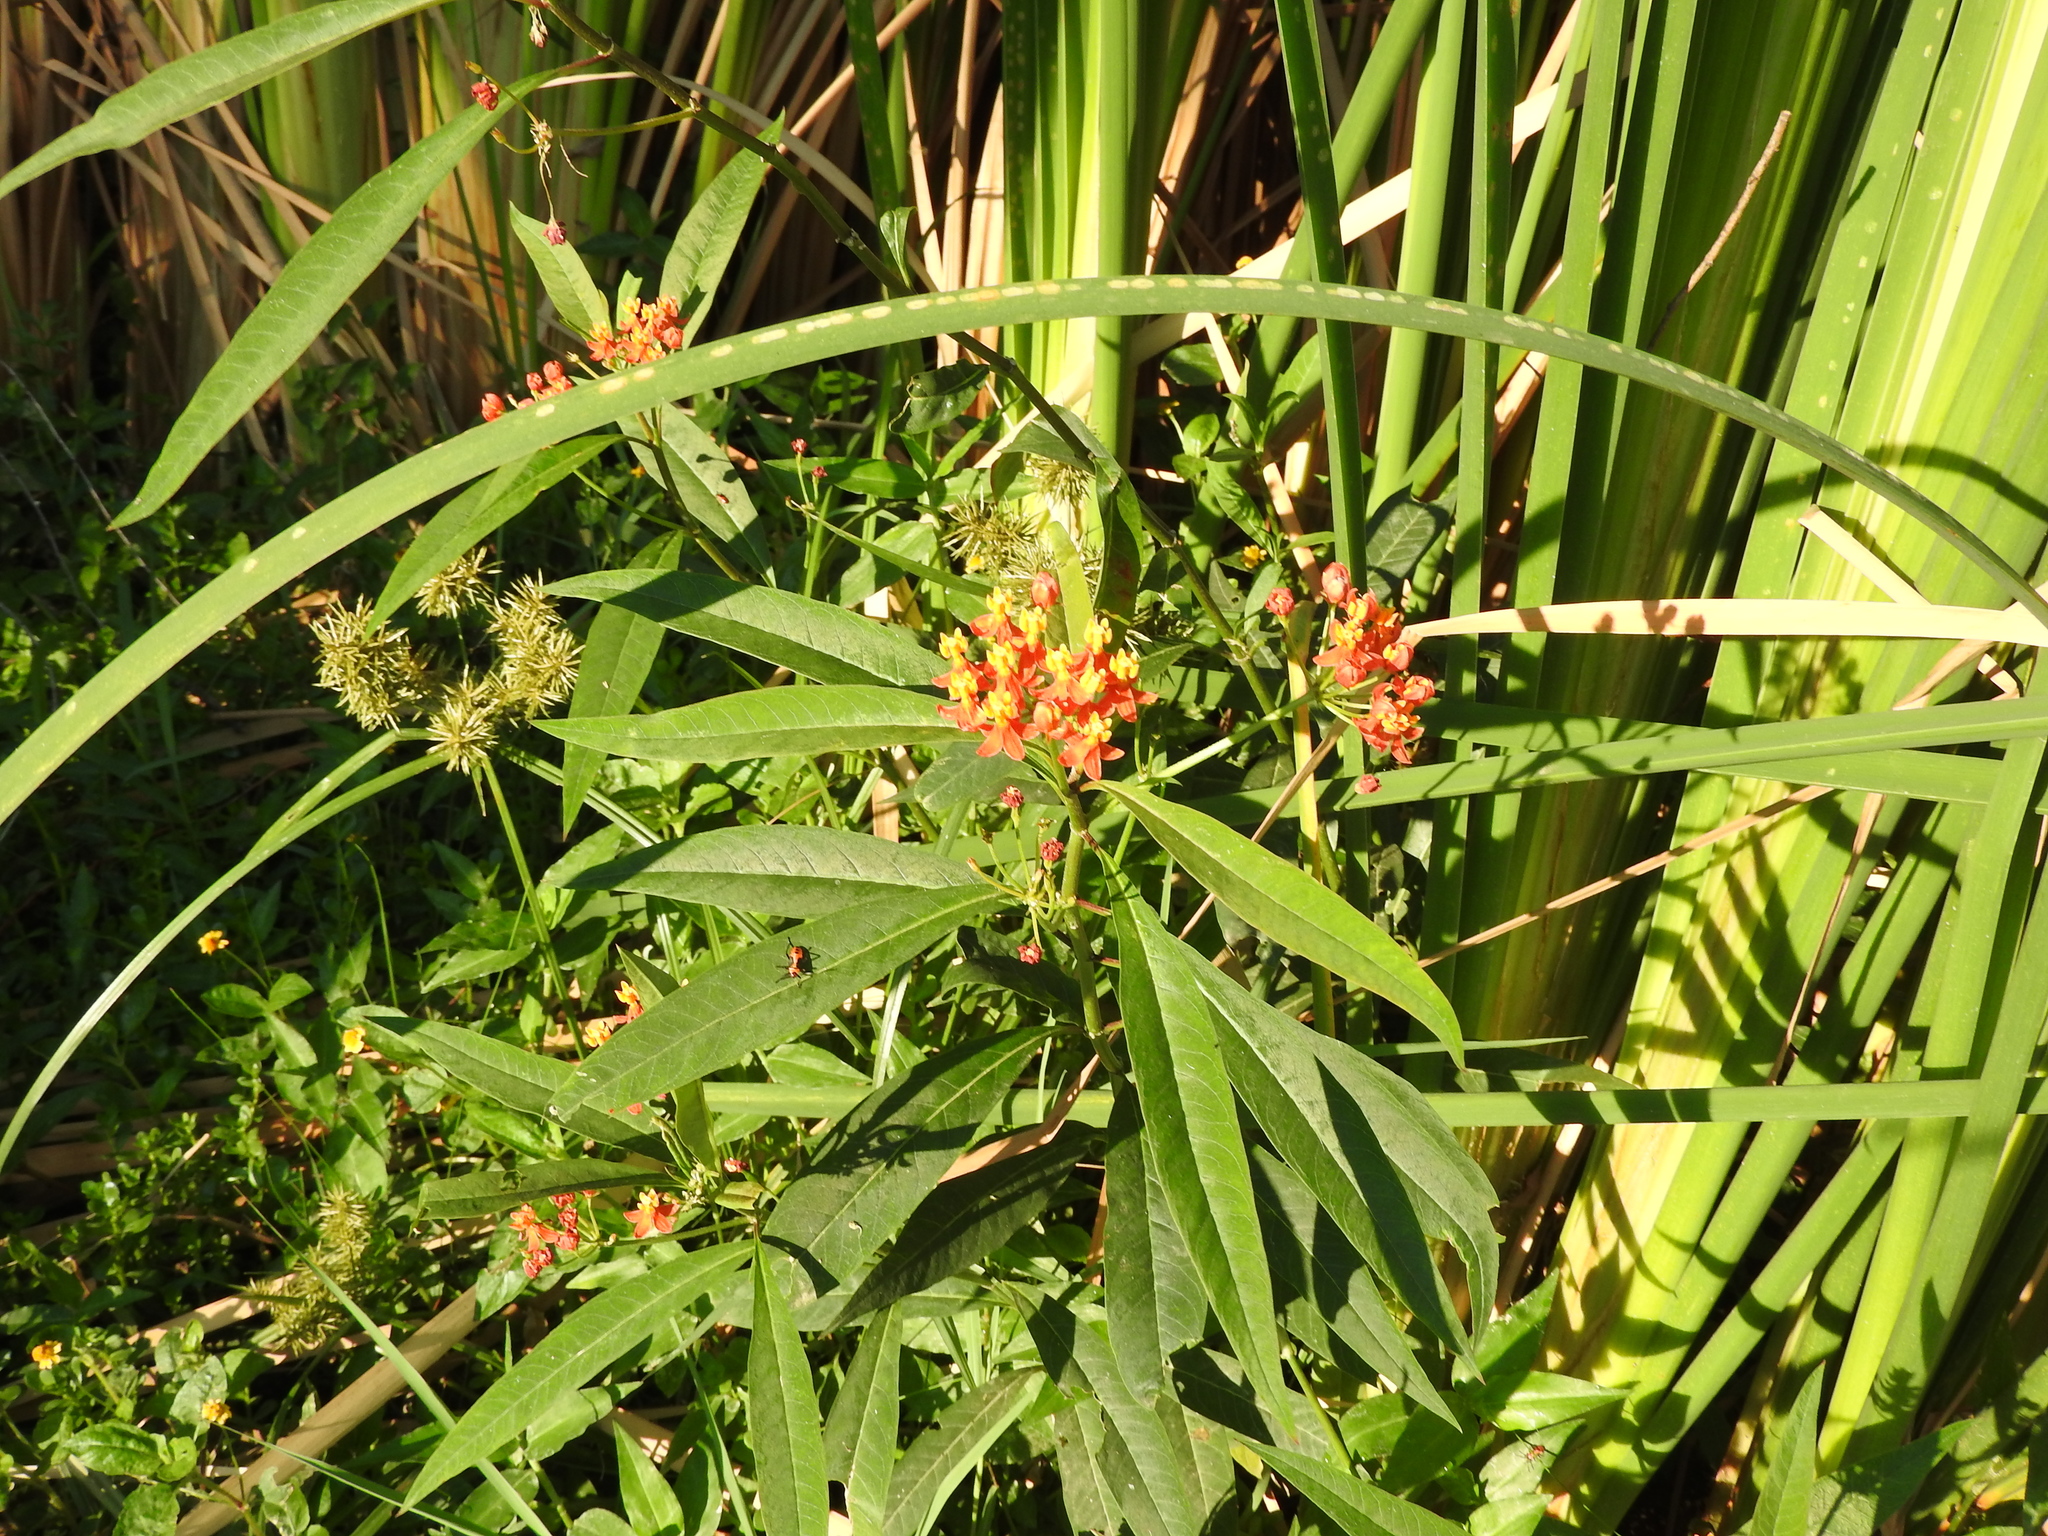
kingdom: Plantae
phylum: Tracheophyta
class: Magnoliopsida
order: Gentianales
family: Apocynaceae
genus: Asclepias
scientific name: Asclepias curassavica
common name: Bloodflower
